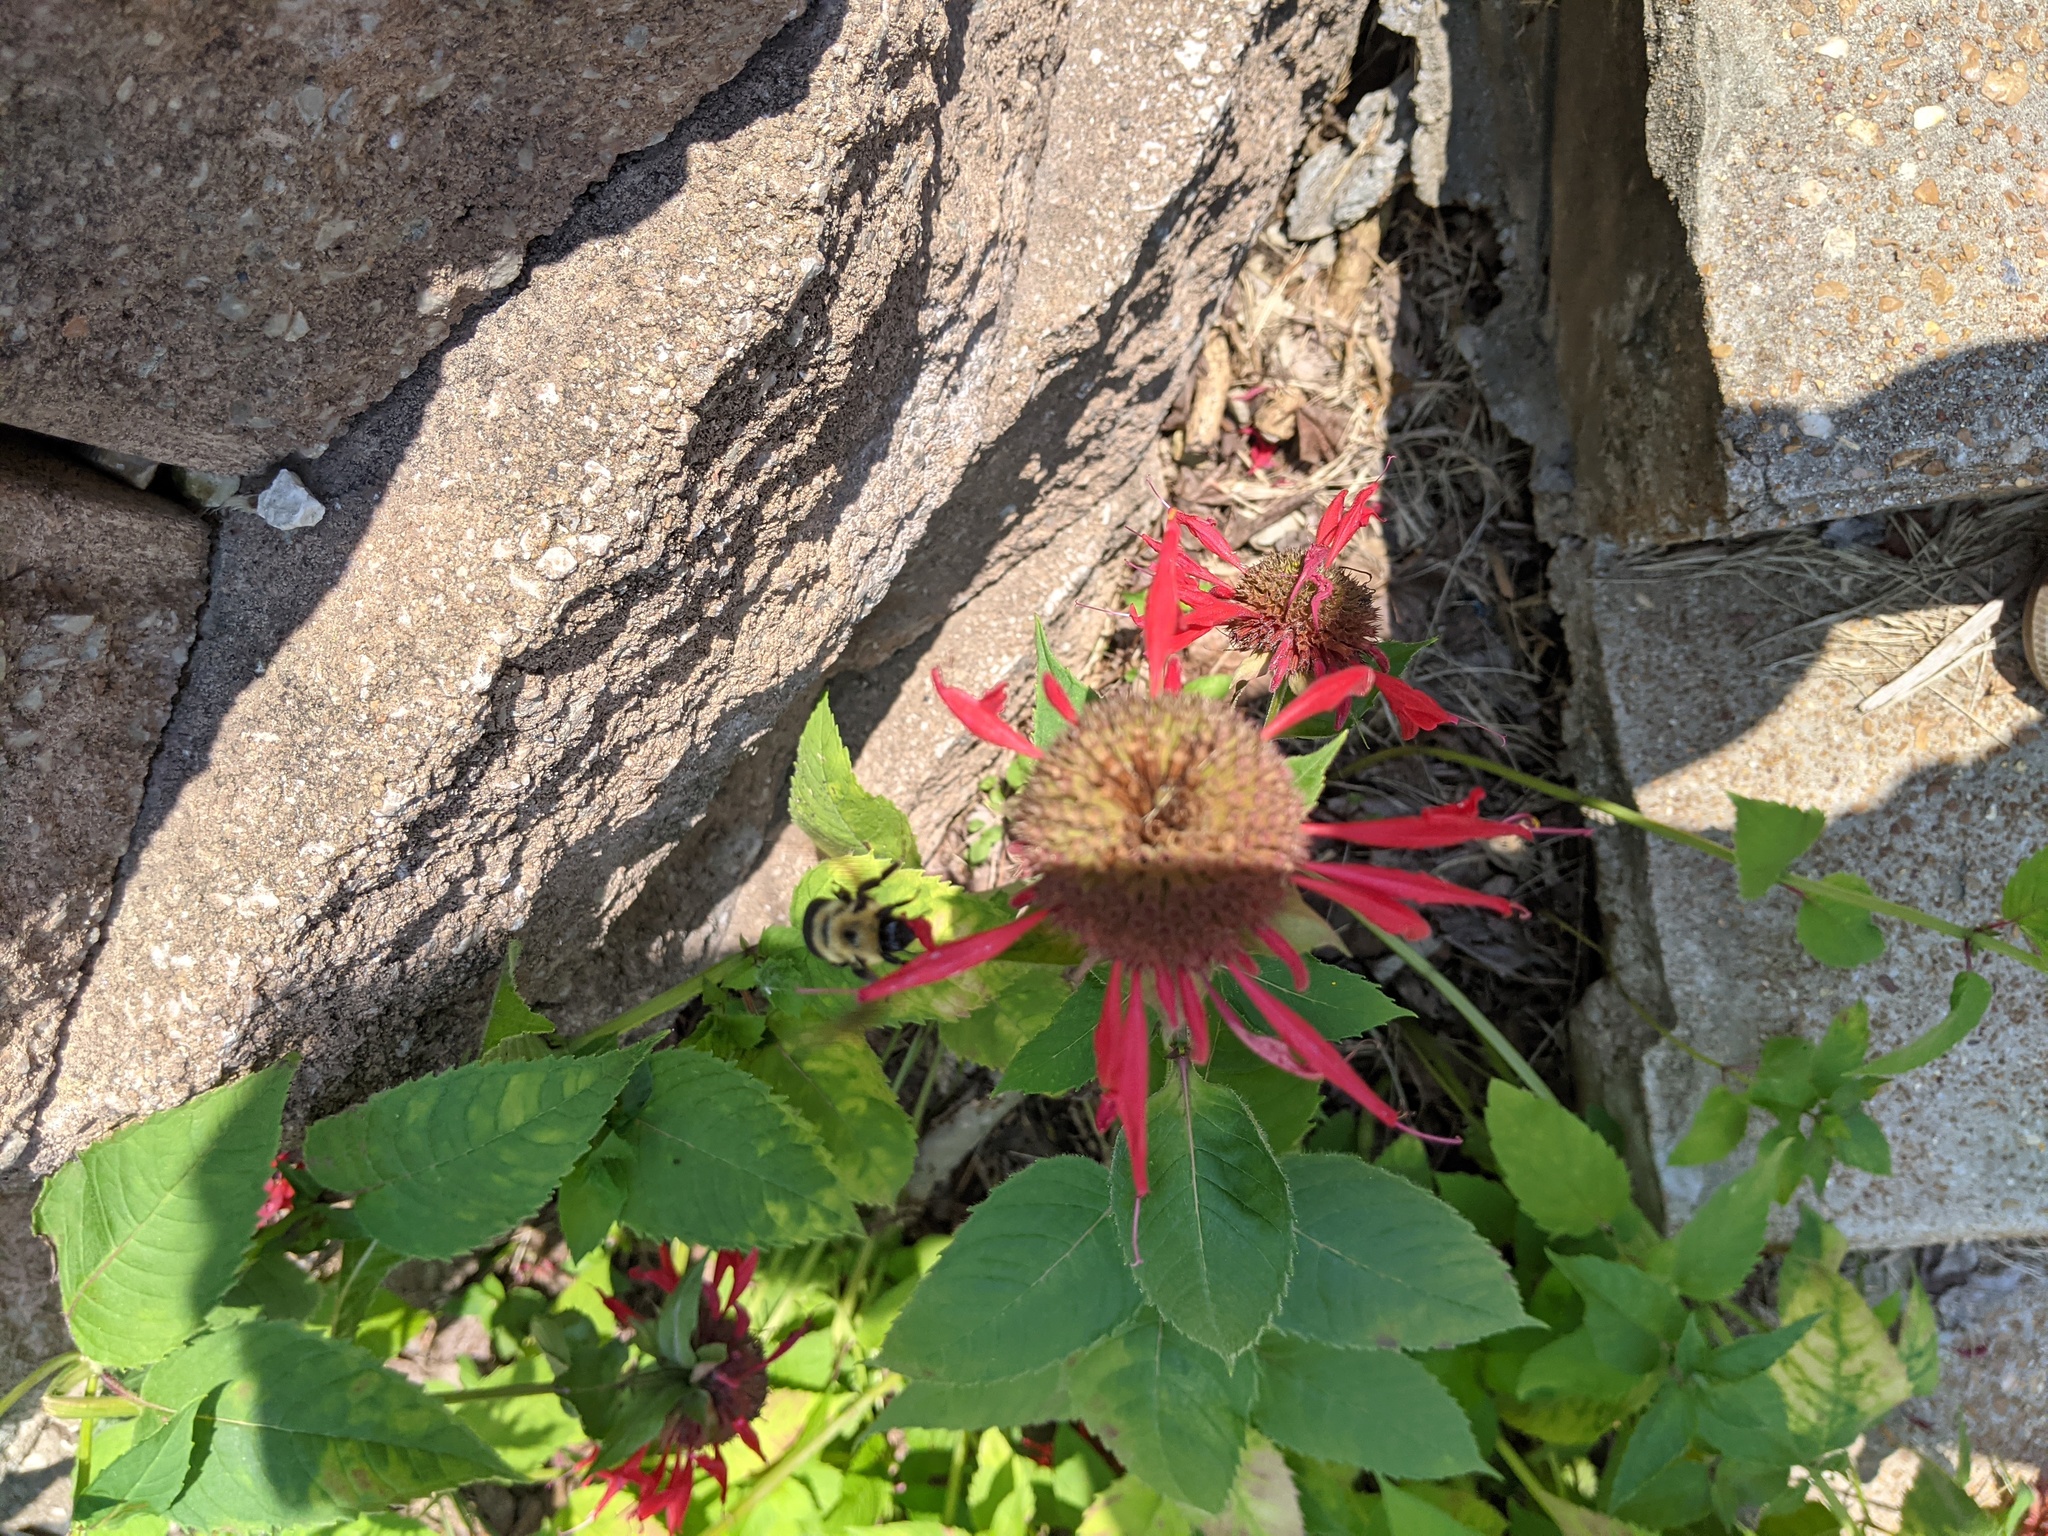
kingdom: Animalia
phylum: Arthropoda
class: Insecta
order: Hymenoptera
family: Apidae
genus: Bombus
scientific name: Bombus griseocollis
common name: Brown-belted bumble bee
